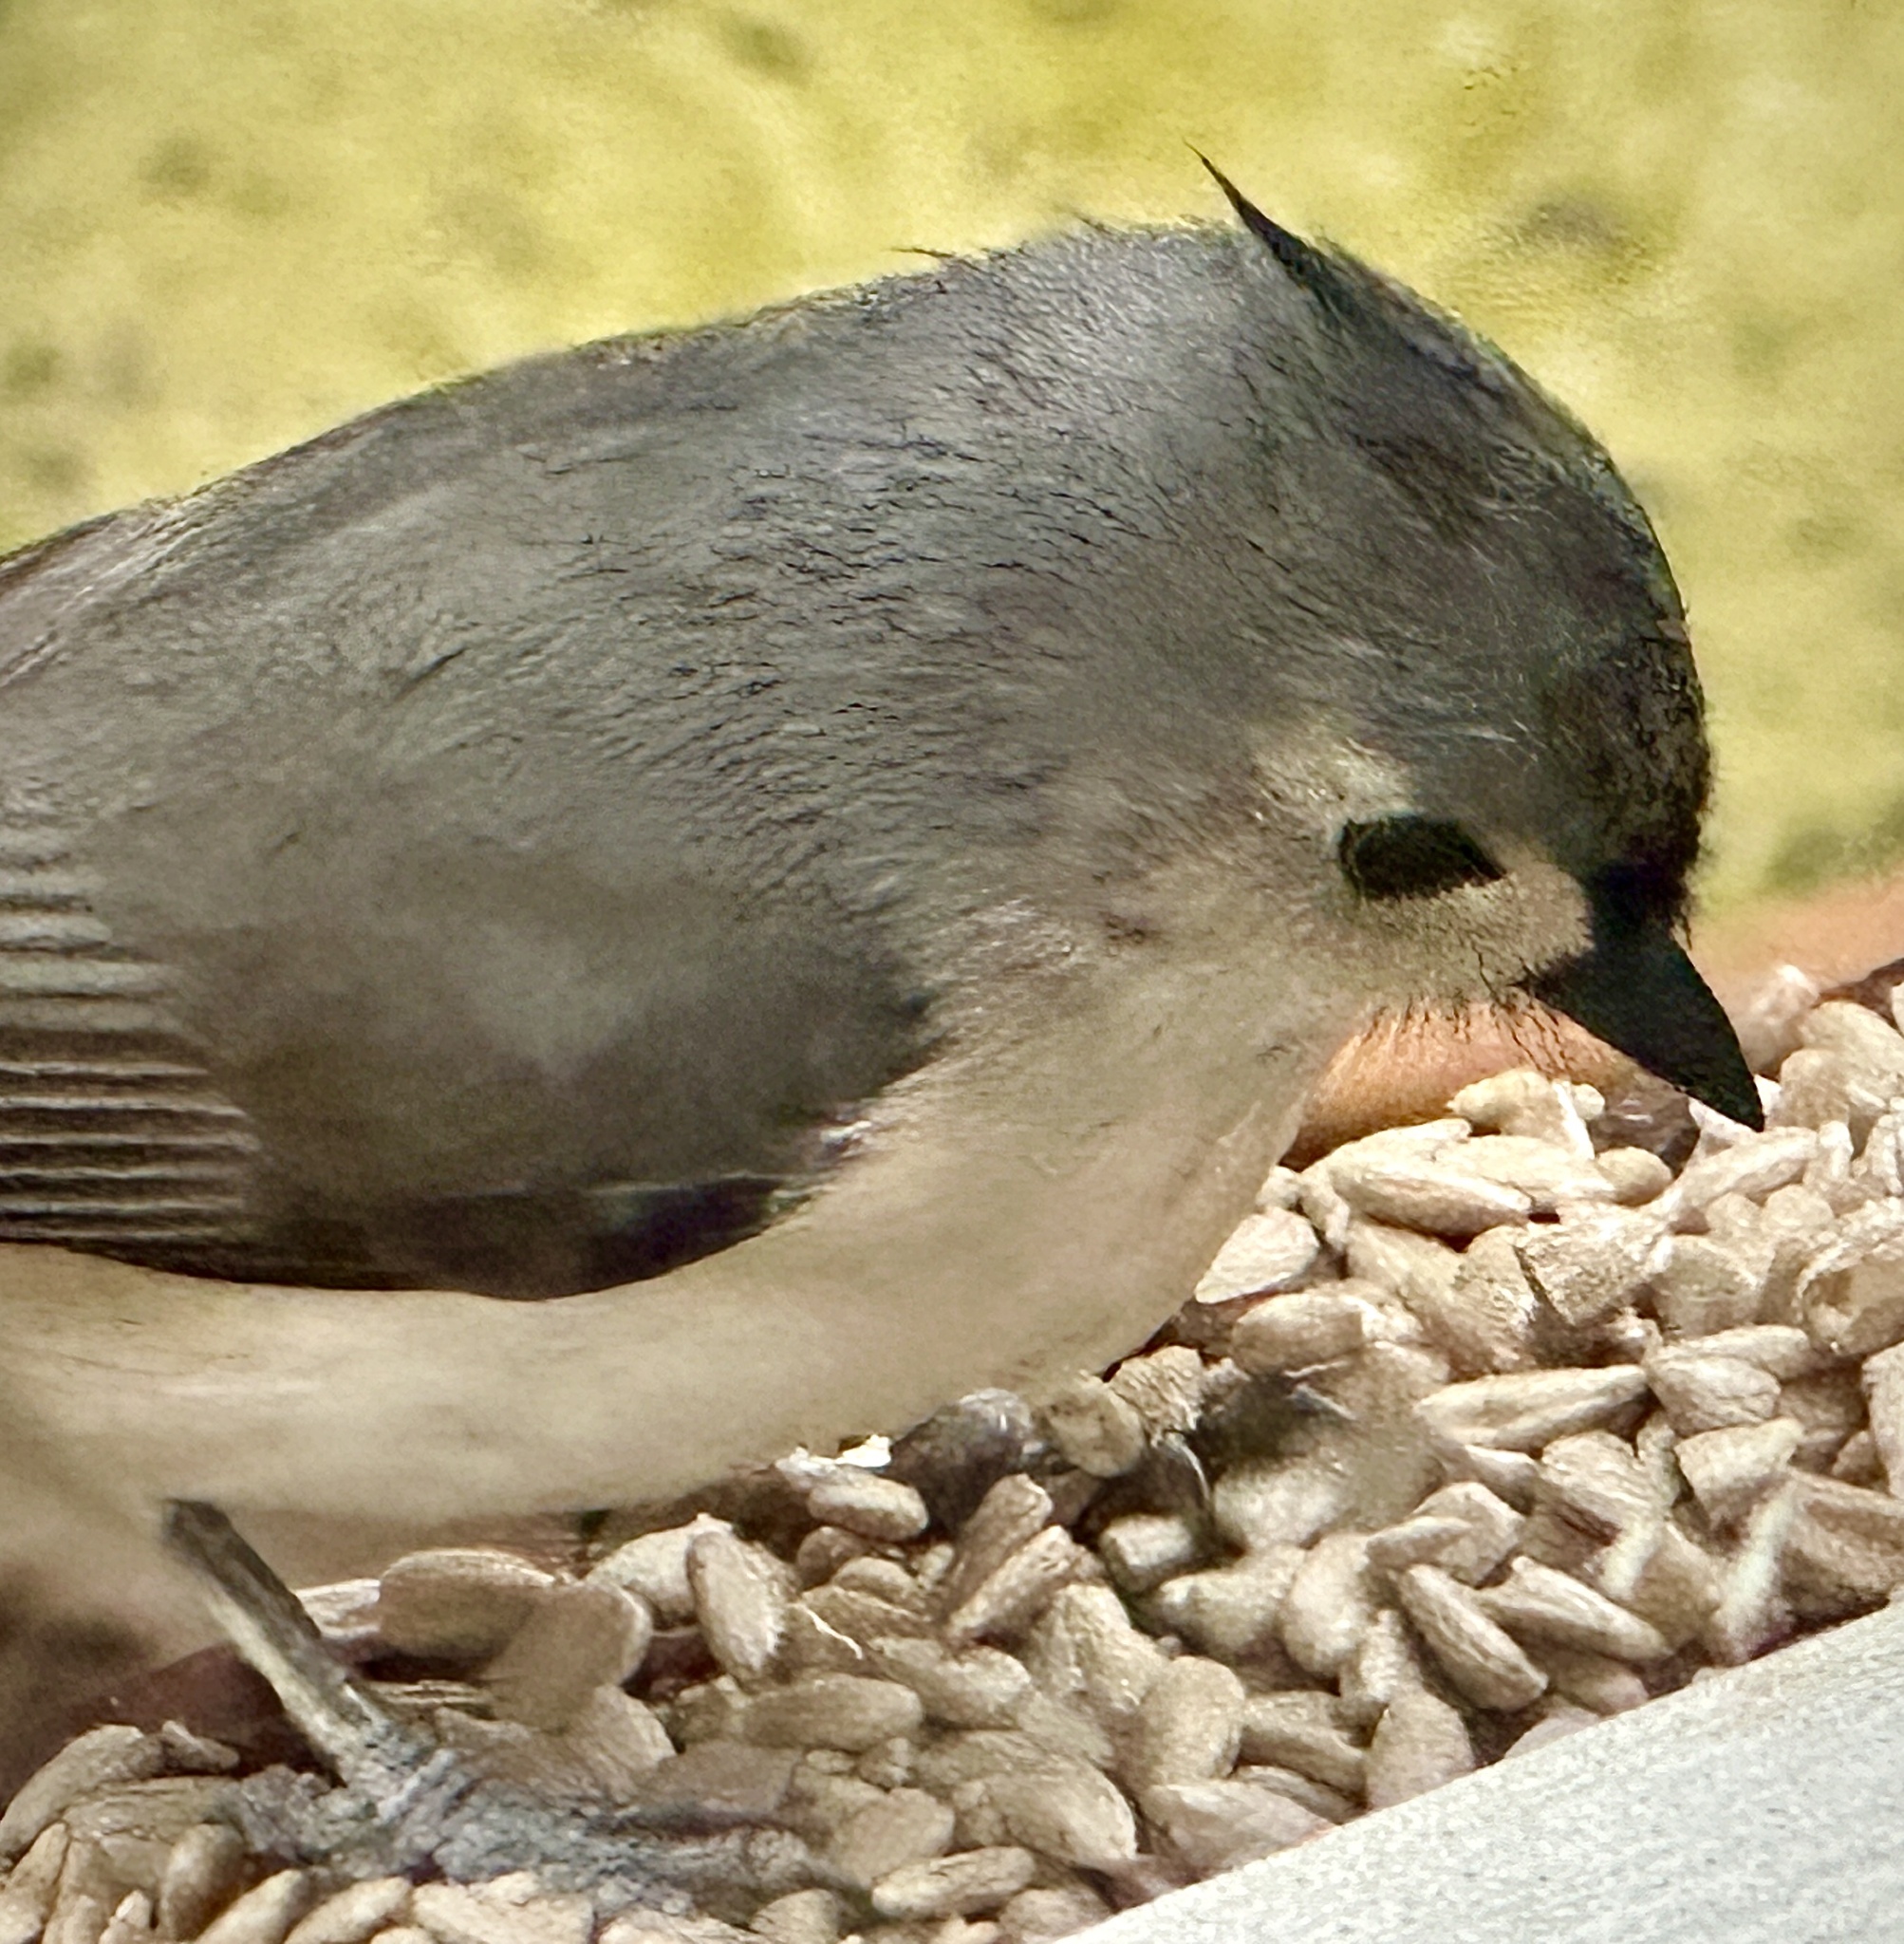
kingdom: Animalia
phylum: Chordata
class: Aves
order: Passeriformes
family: Paridae
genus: Baeolophus
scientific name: Baeolophus bicolor
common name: Tufted titmouse
